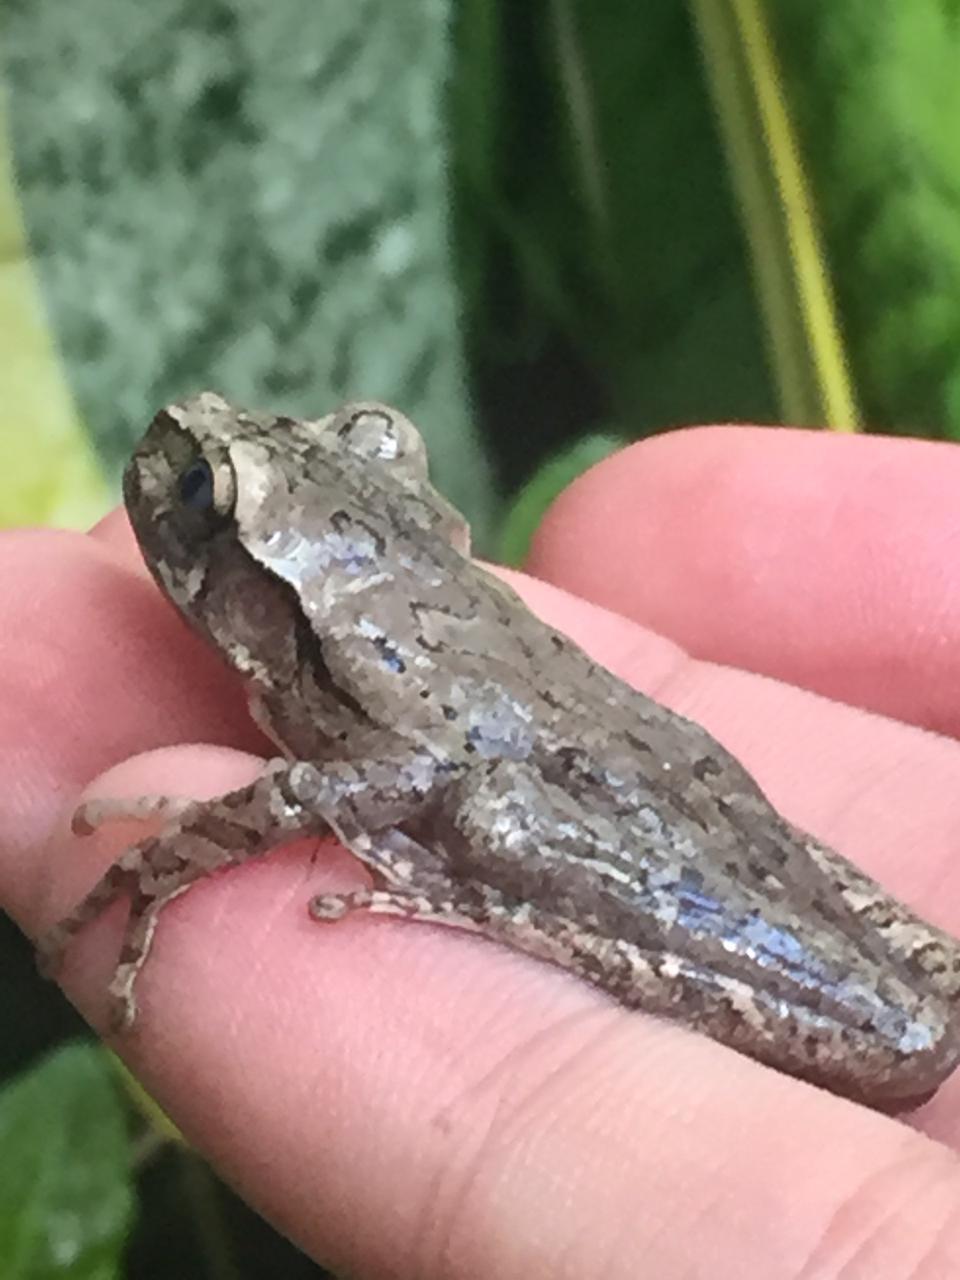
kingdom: Animalia
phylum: Chordata
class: Amphibia
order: Anura
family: Hylidae
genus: Smilisca
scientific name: Smilisca baudinii
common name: Mexican smilisca
